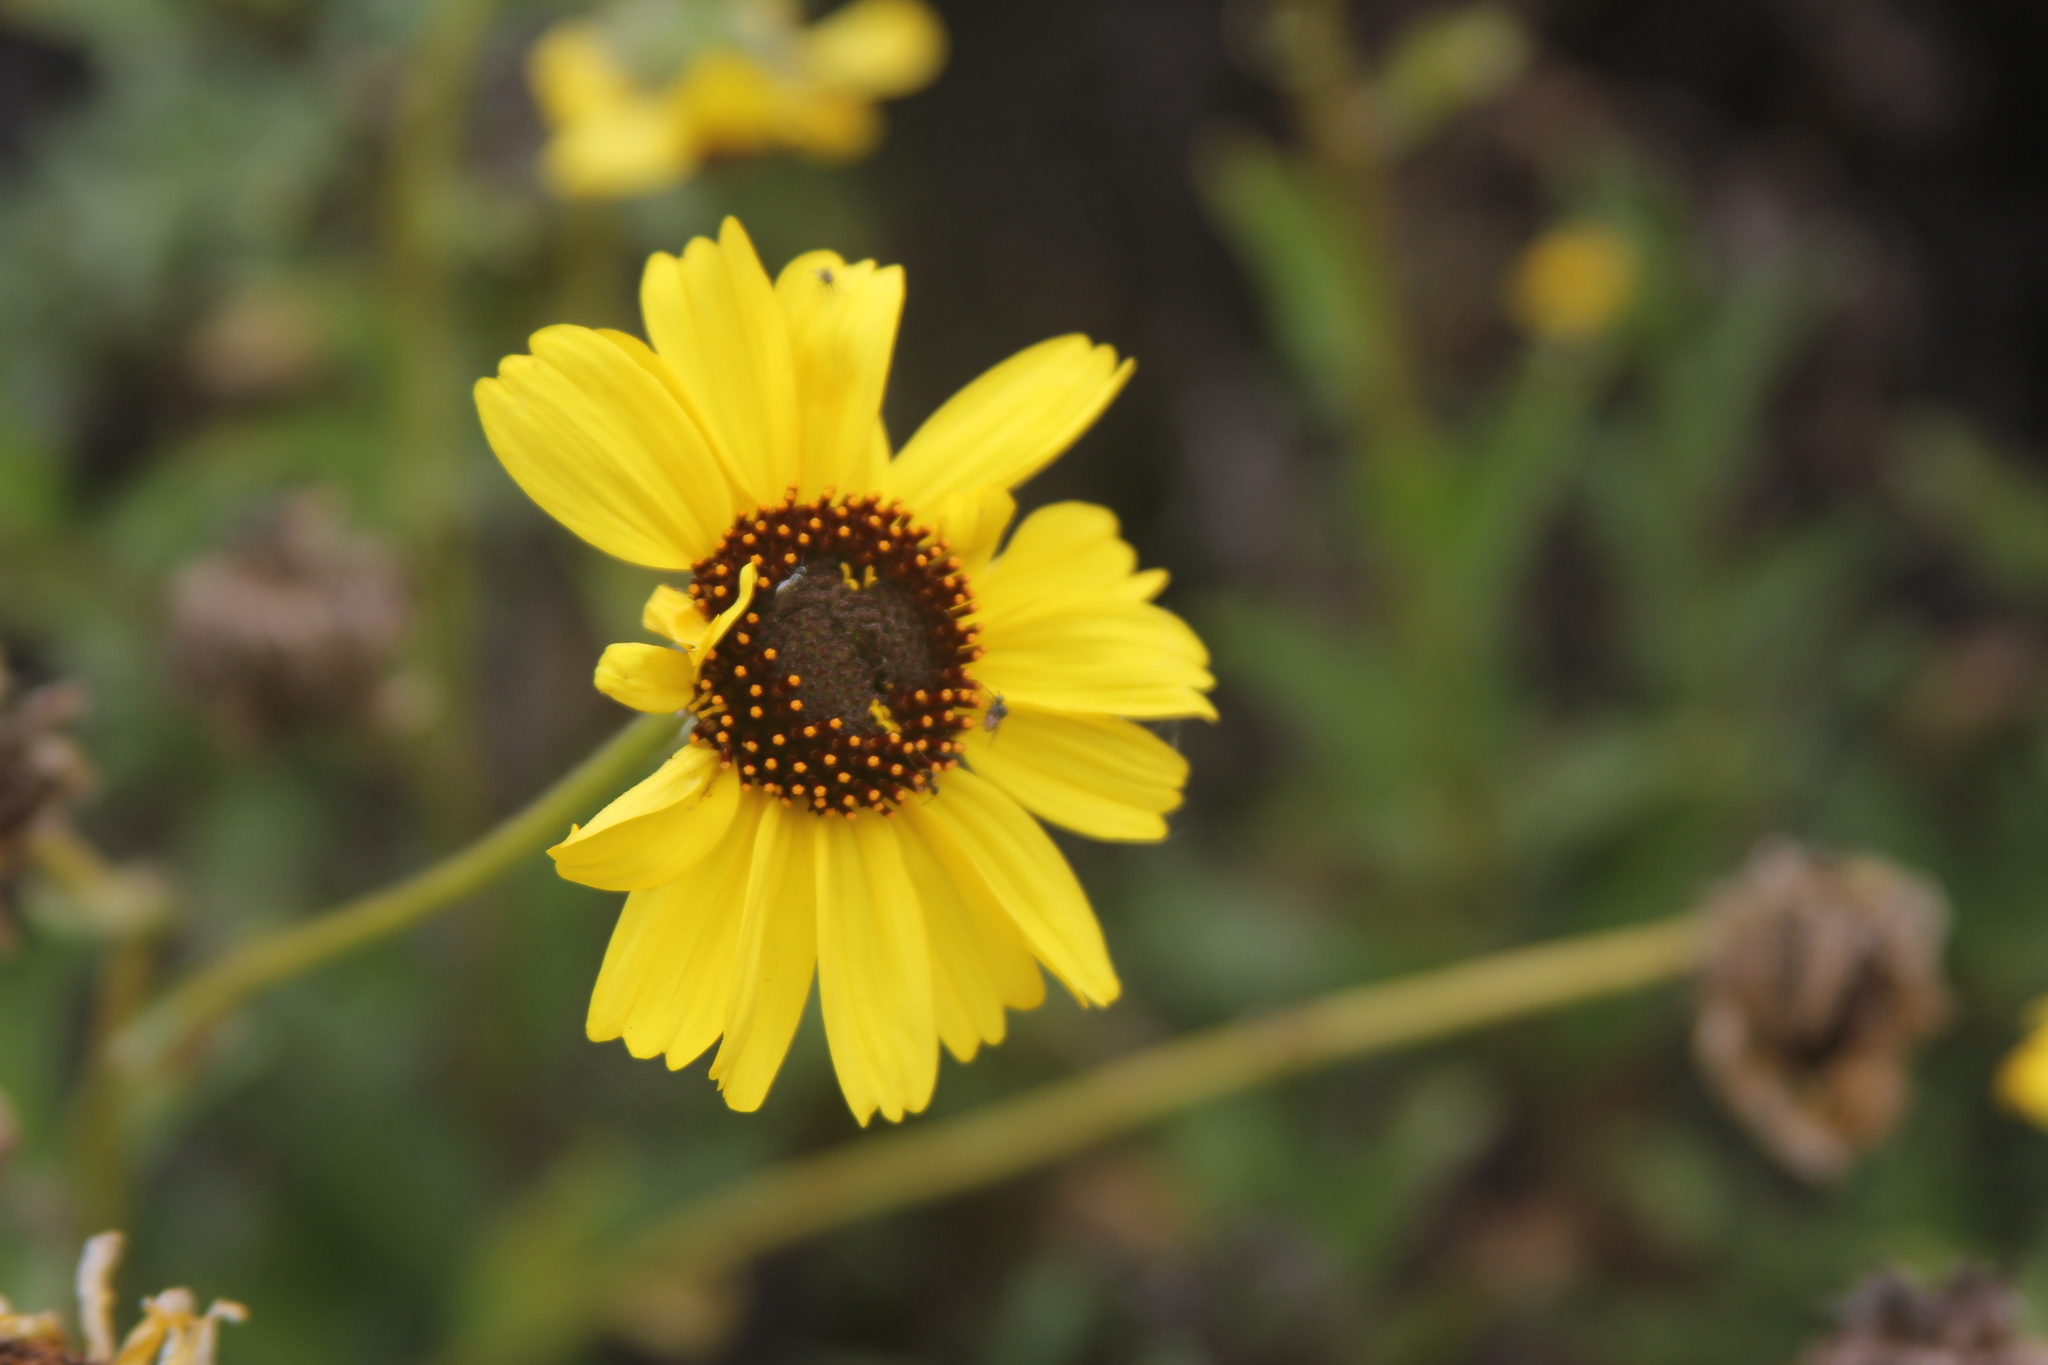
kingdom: Plantae
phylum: Tracheophyta
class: Magnoliopsida
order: Asterales
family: Asteraceae
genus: Encelia
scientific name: Encelia californica
